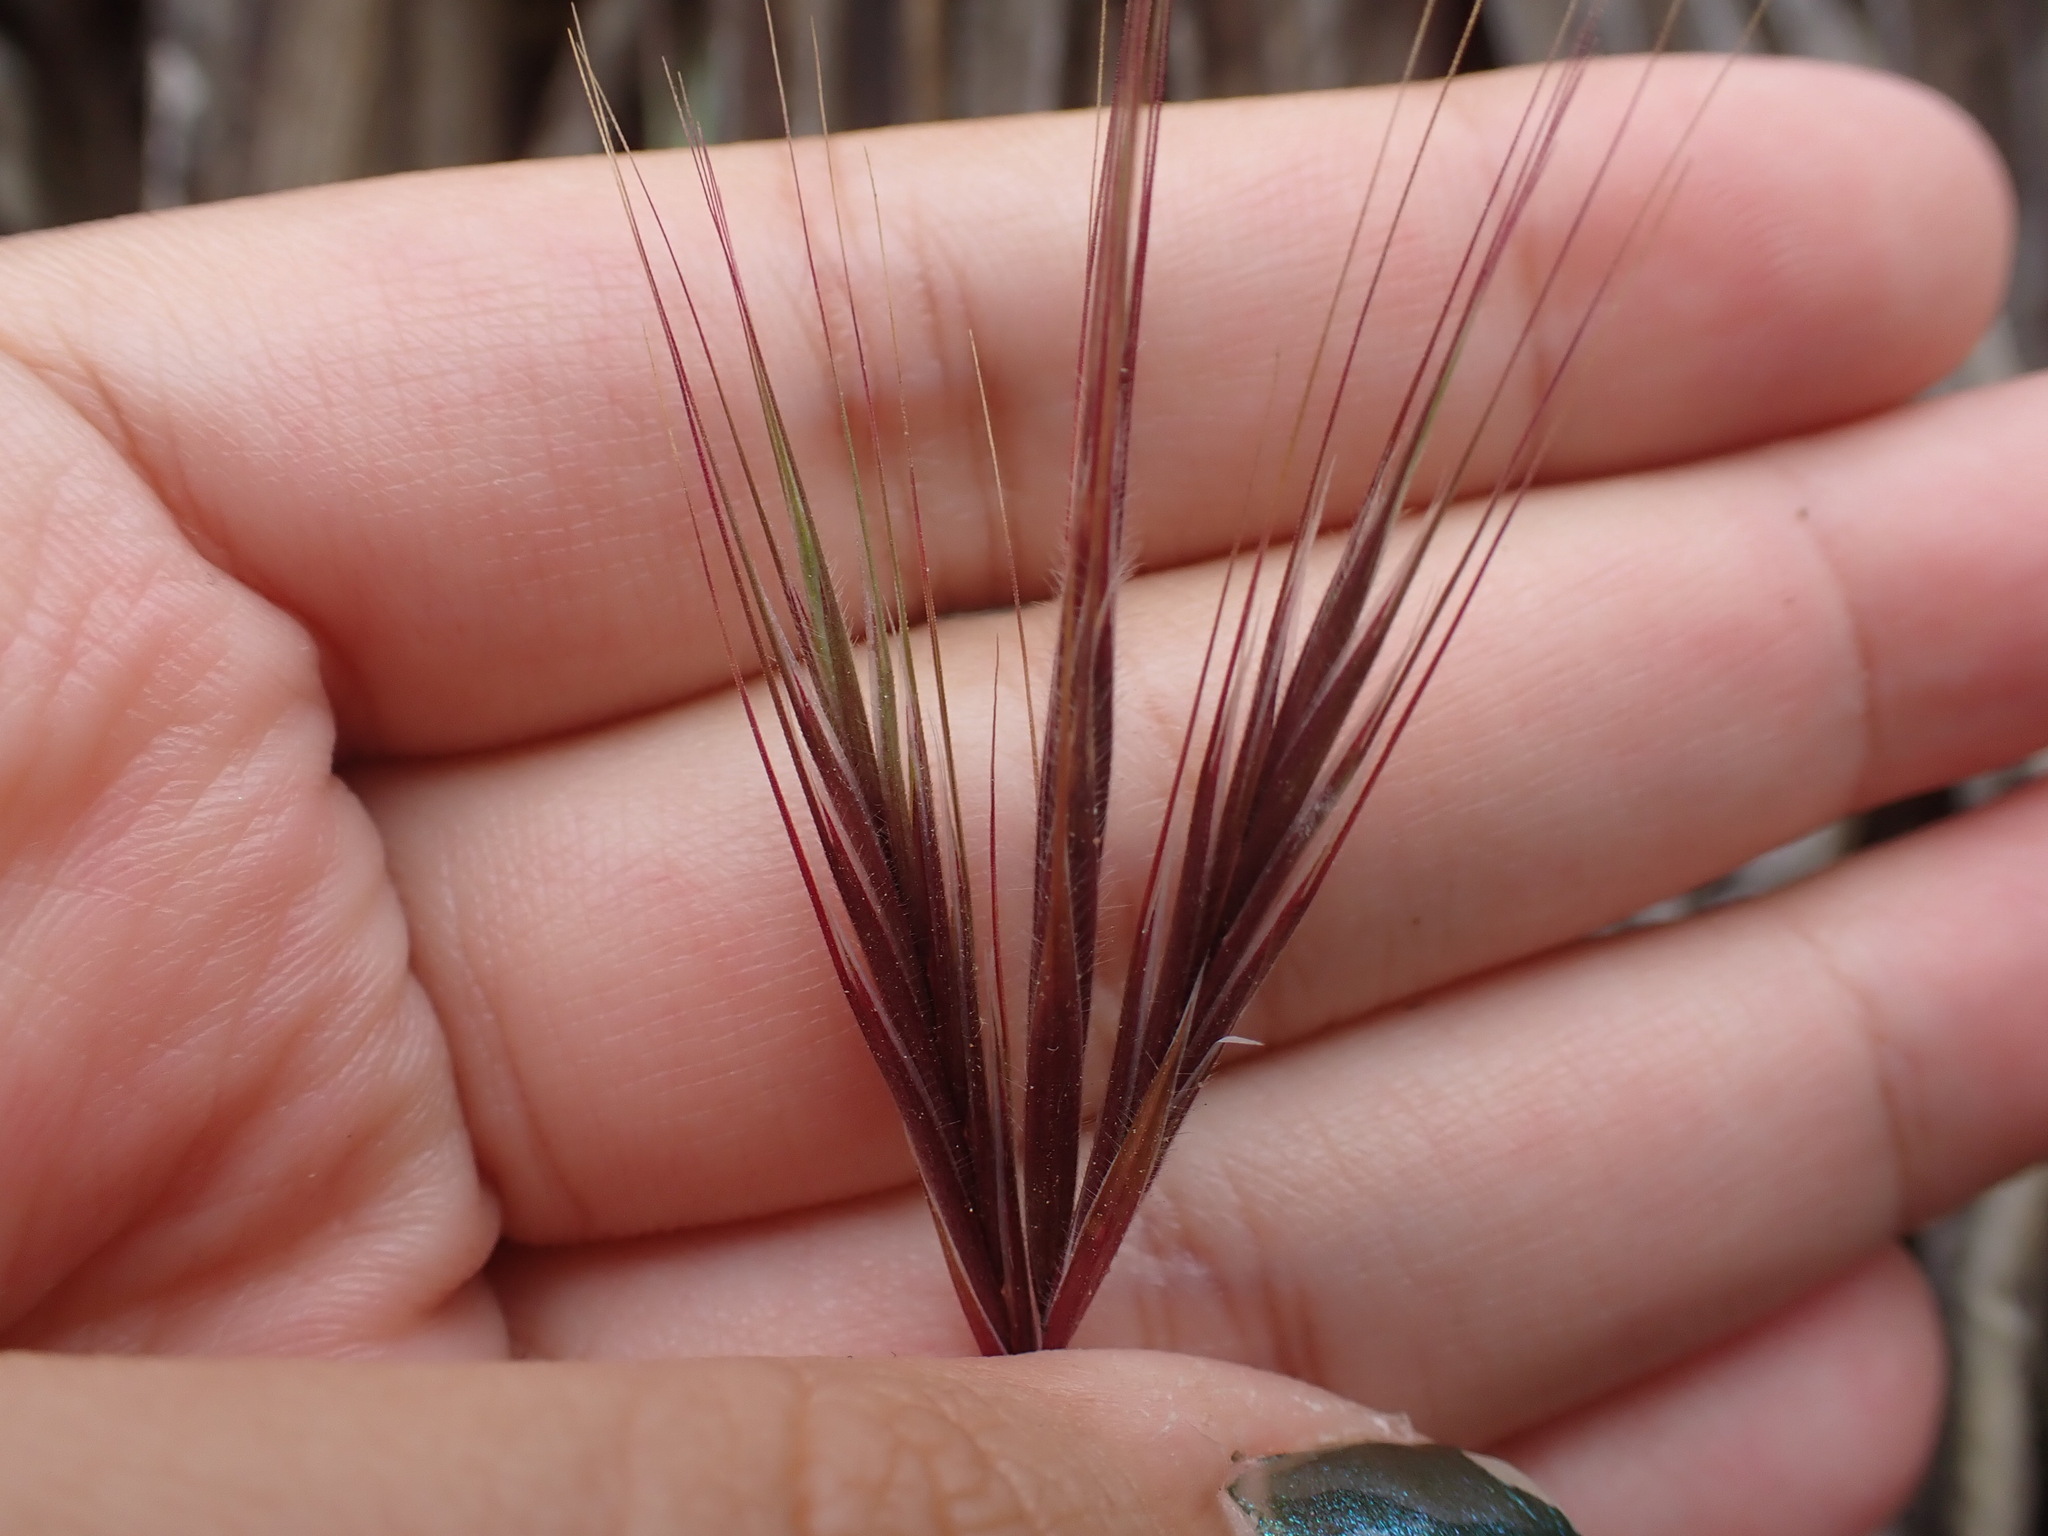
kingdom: Plantae
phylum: Tracheophyta
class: Liliopsida
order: Poales
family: Poaceae
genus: Bromus
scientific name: Bromus rubens
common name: Red brome
